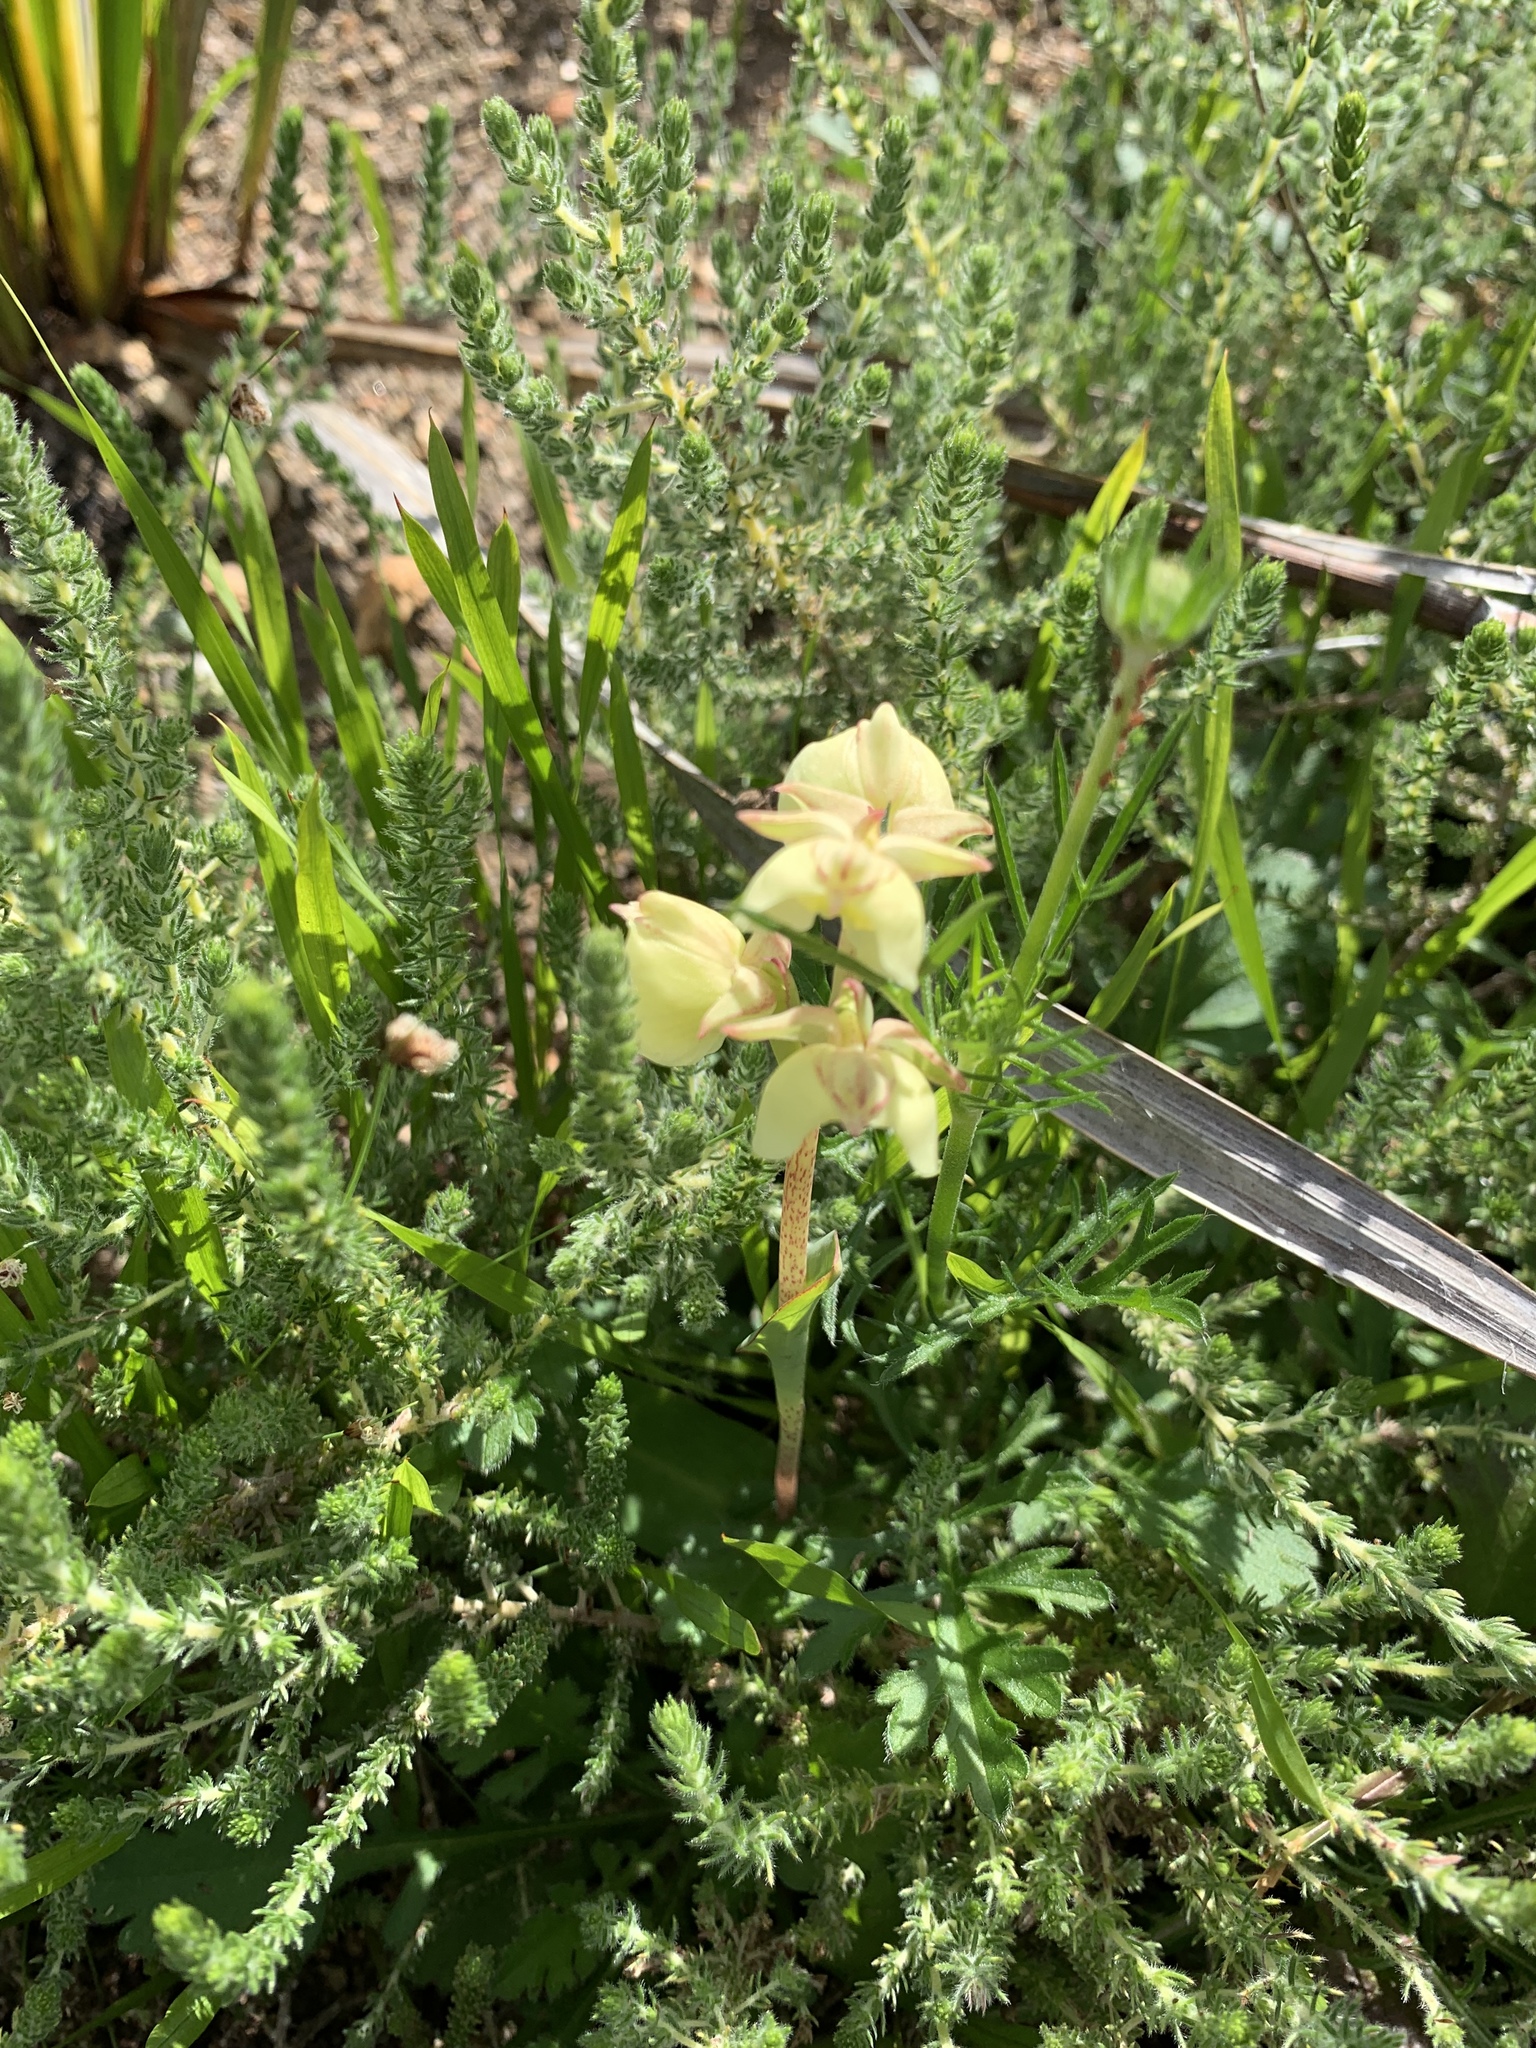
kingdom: Plantae
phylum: Tracheophyta
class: Liliopsida
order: Asparagales
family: Orchidaceae
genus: Pterygodium
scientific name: Pterygodium catholicum
